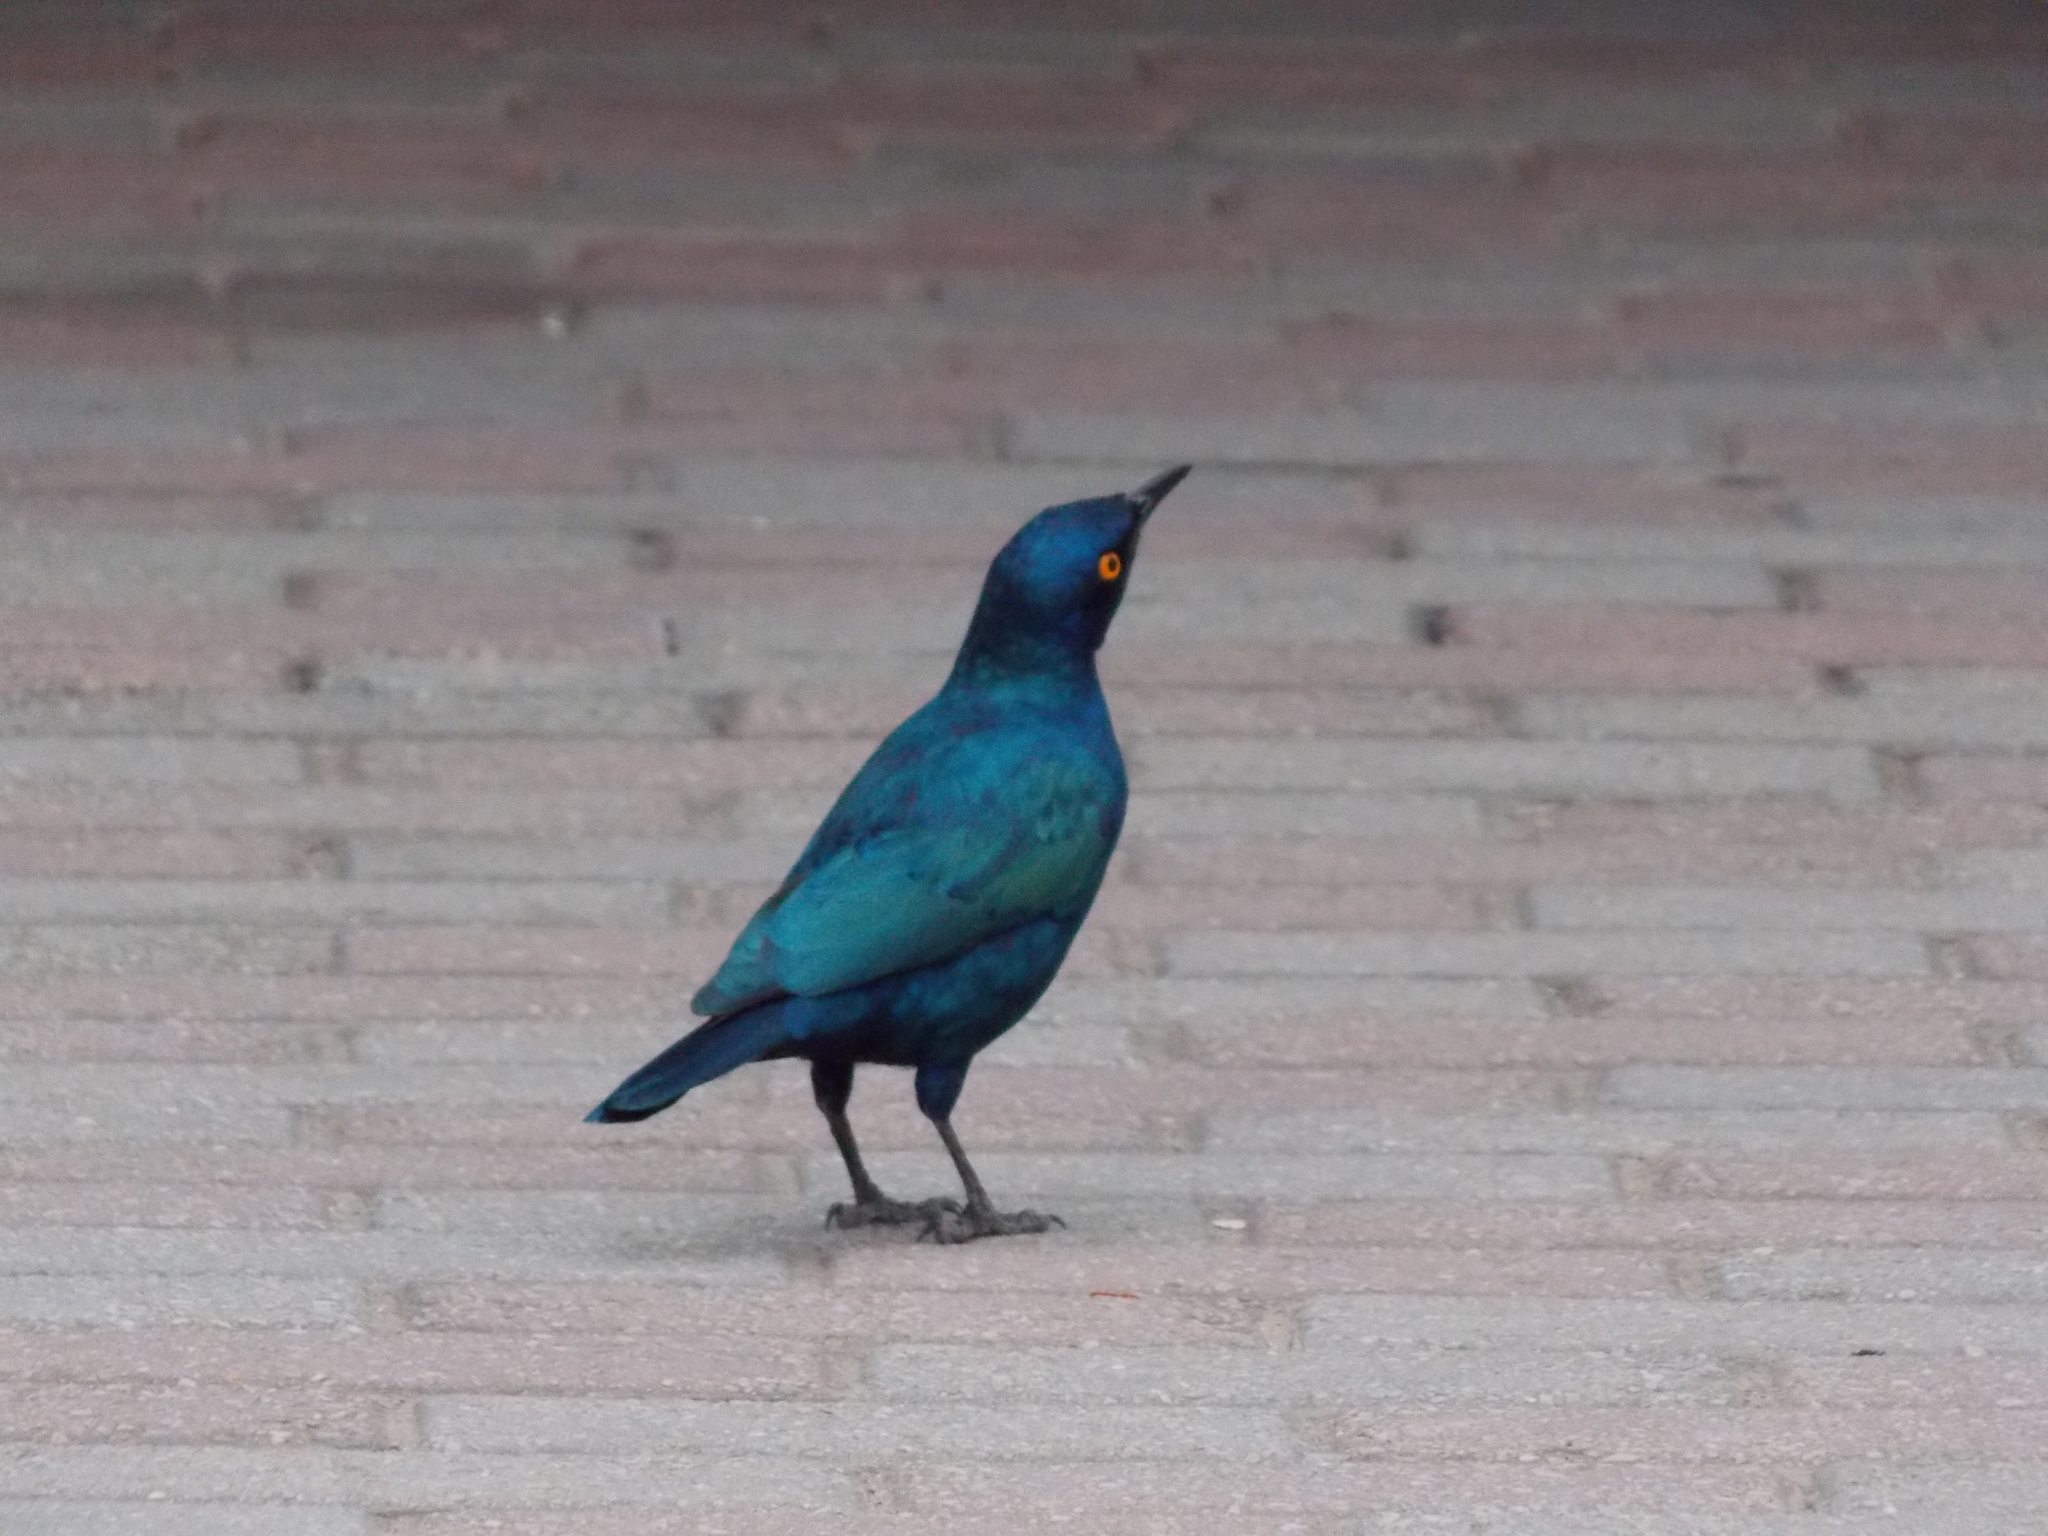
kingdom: Animalia
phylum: Chordata
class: Aves
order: Passeriformes
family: Sturnidae
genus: Lamprotornis
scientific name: Lamprotornis nitens
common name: Cape starling
